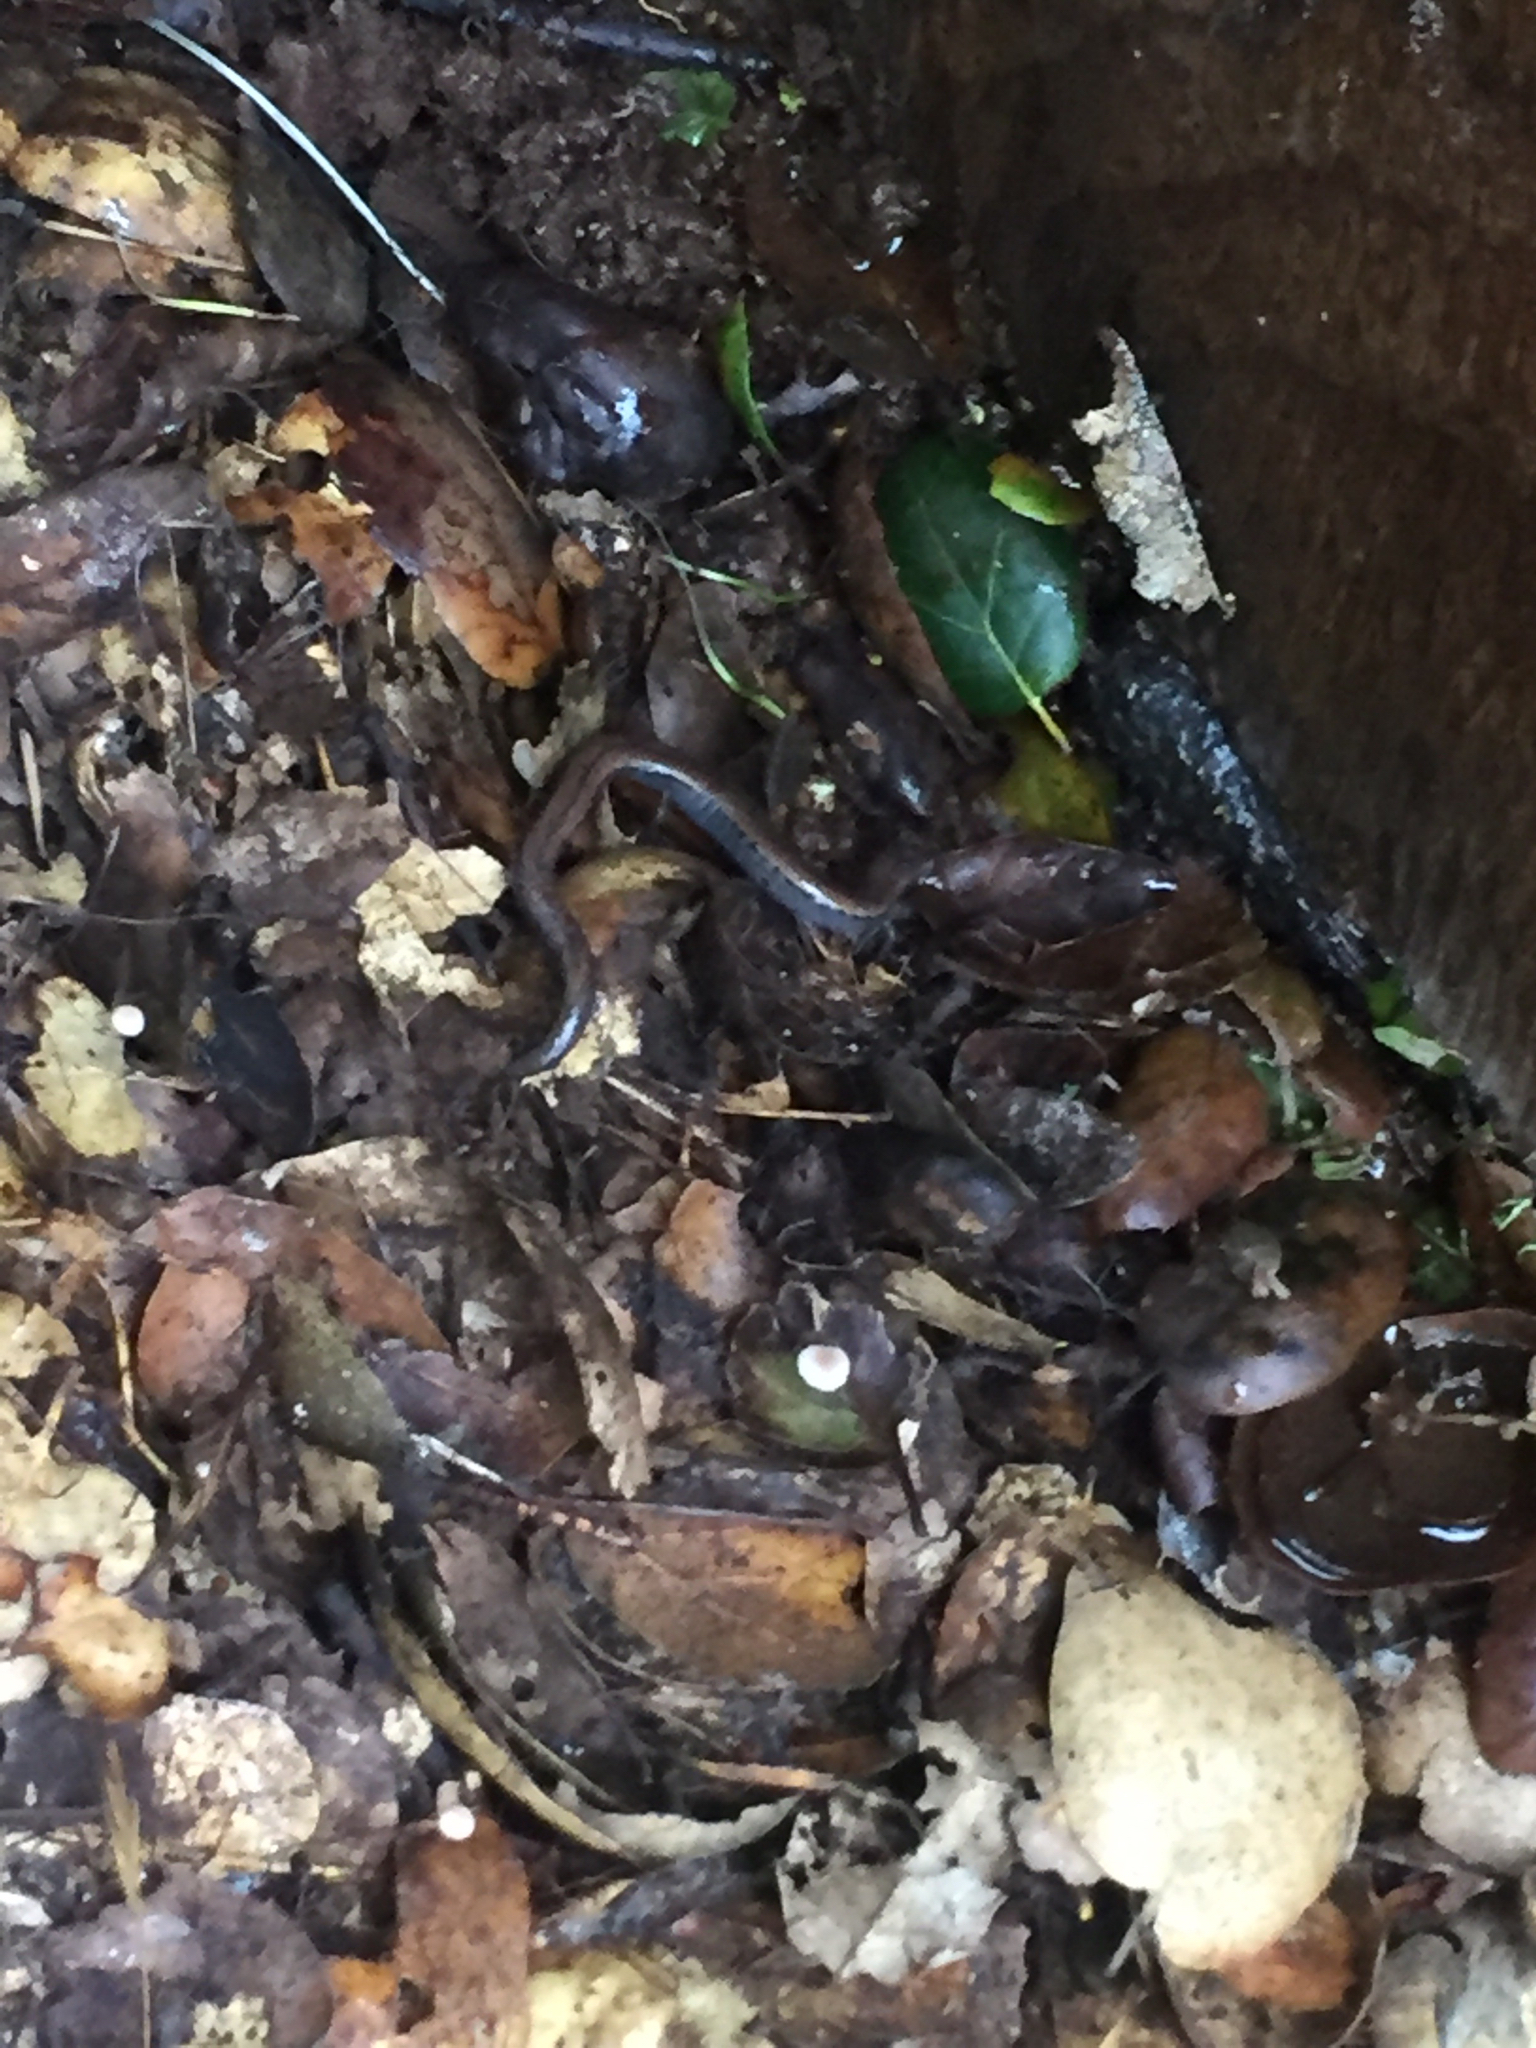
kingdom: Animalia
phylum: Chordata
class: Amphibia
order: Caudata
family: Plethodontidae
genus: Batrachoseps
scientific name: Batrachoseps attenuatus
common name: California slender salamander
